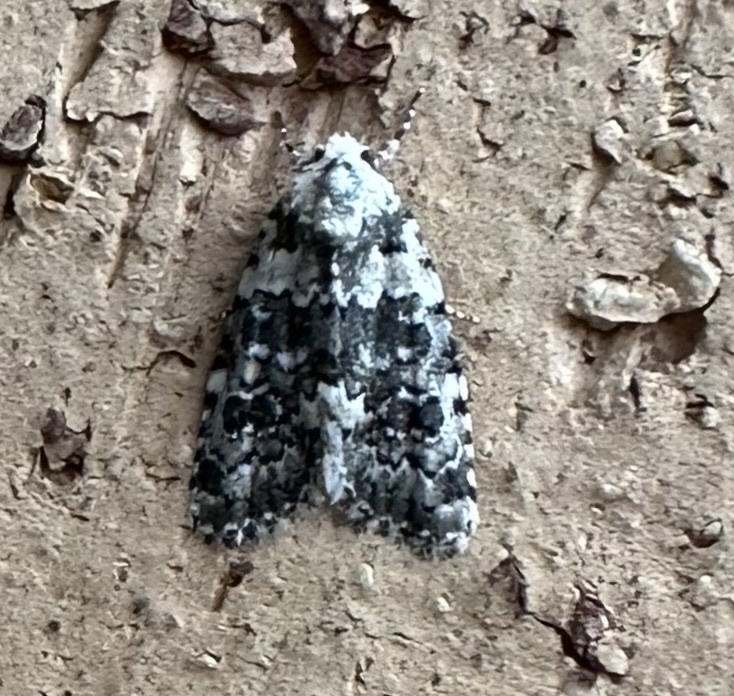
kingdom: Animalia
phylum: Arthropoda
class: Insecta
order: Lepidoptera
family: Noctuidae
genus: Bryophila
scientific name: Bryophila domestica
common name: Marbled beauty
